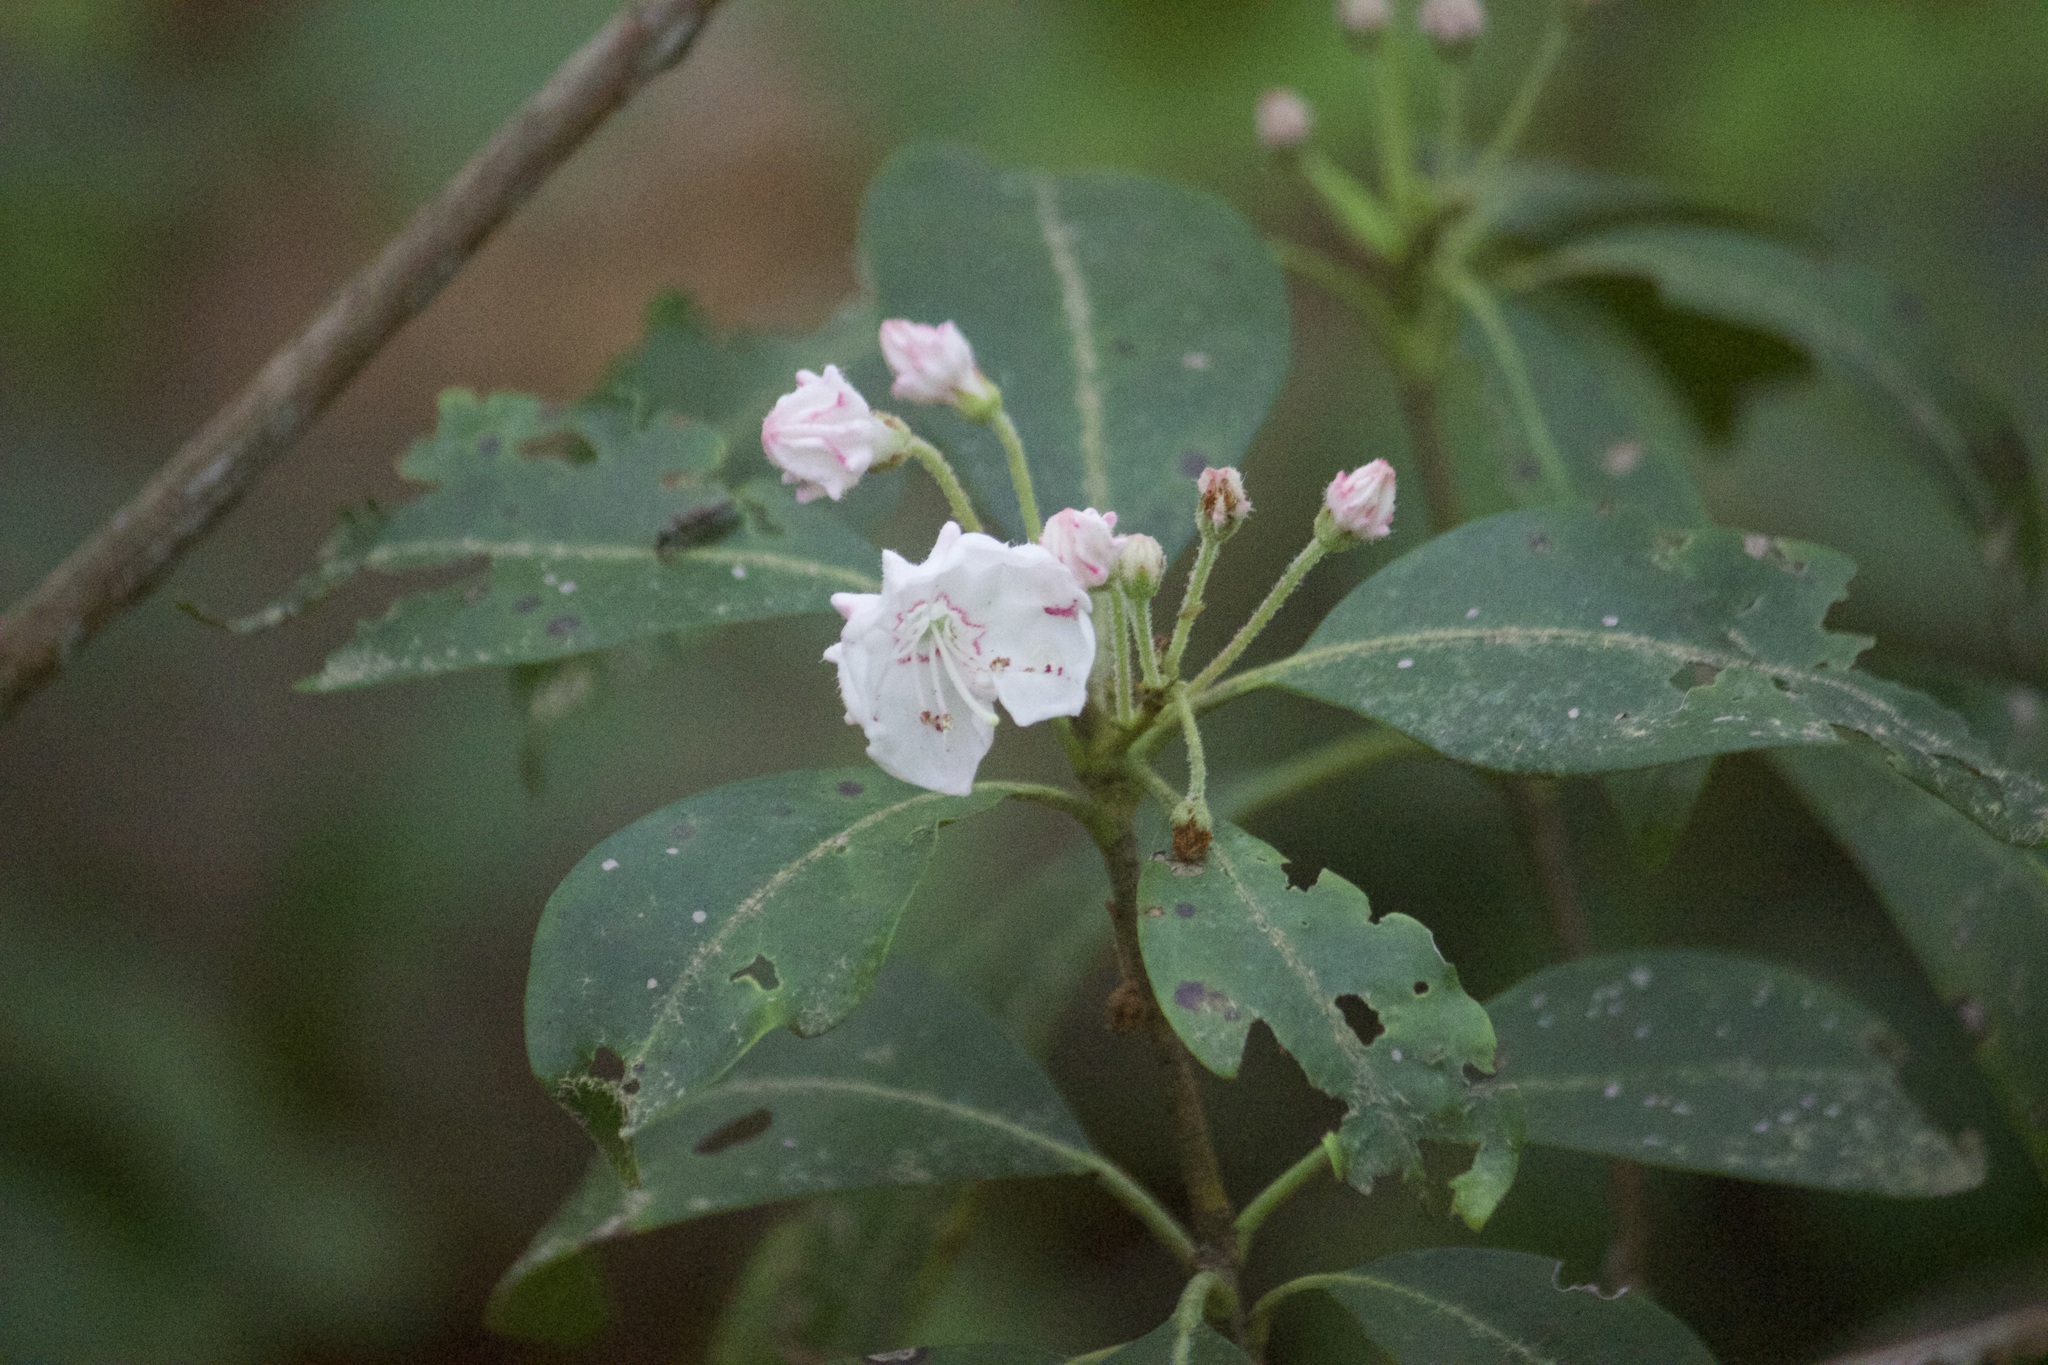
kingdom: Plantae
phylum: Tracheophyta
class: Magnoliopsida
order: Ericales
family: Ericaceae
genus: Kalmia
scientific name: Kalmia latifolia
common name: Mountain-laurel
